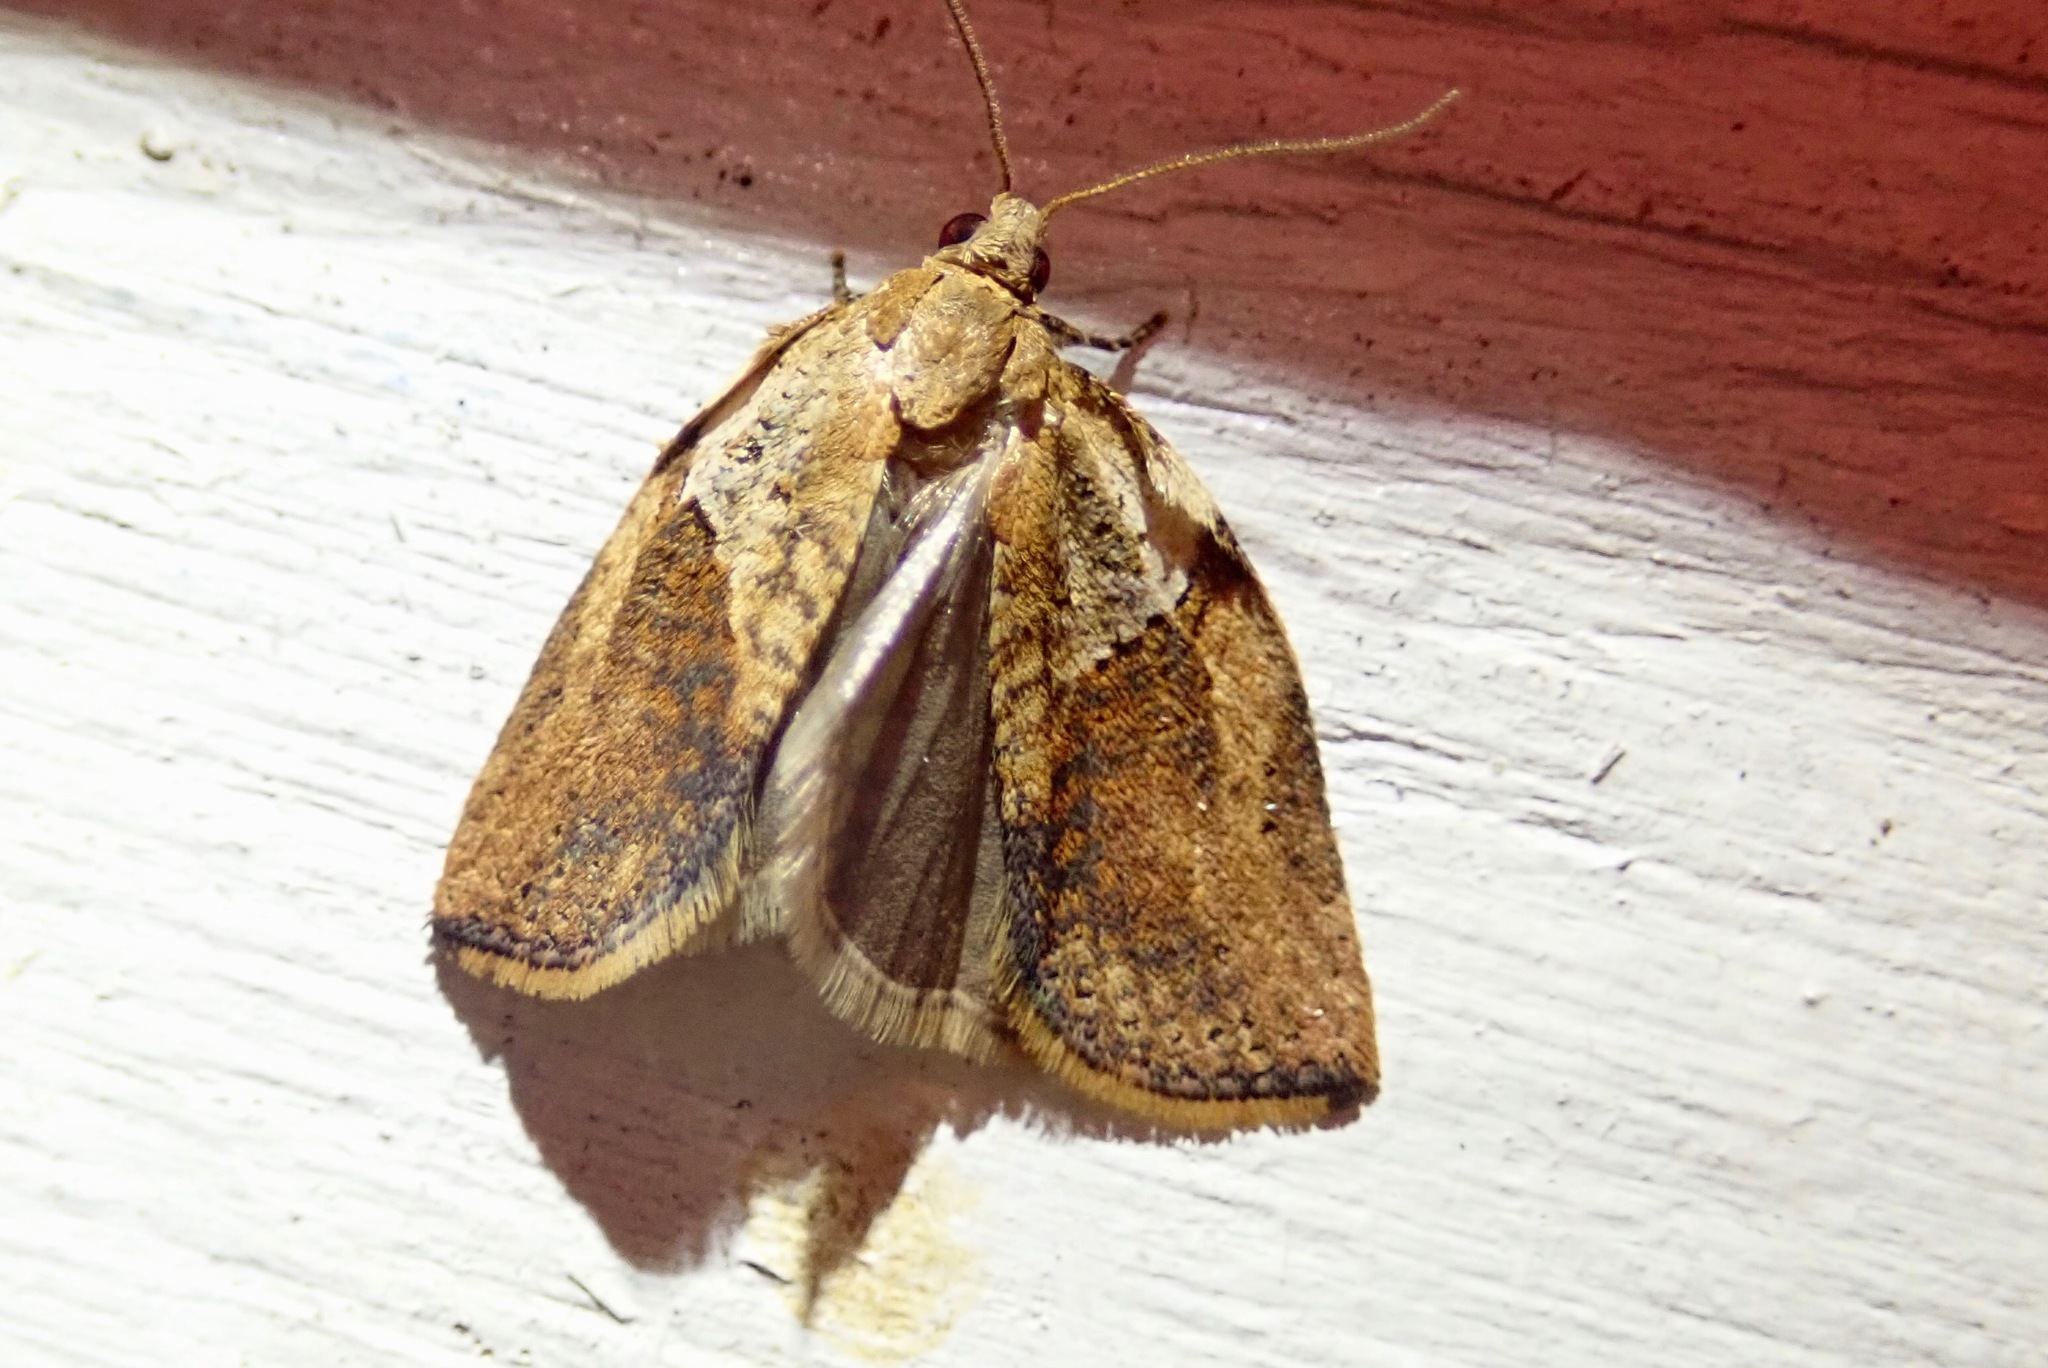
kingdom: Animalia
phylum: Arthropoda
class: Insecta
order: Lepidoptera
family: Tortricidae
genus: Epiphyas
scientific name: Epiphyas postvittana
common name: Light brown apple moth
